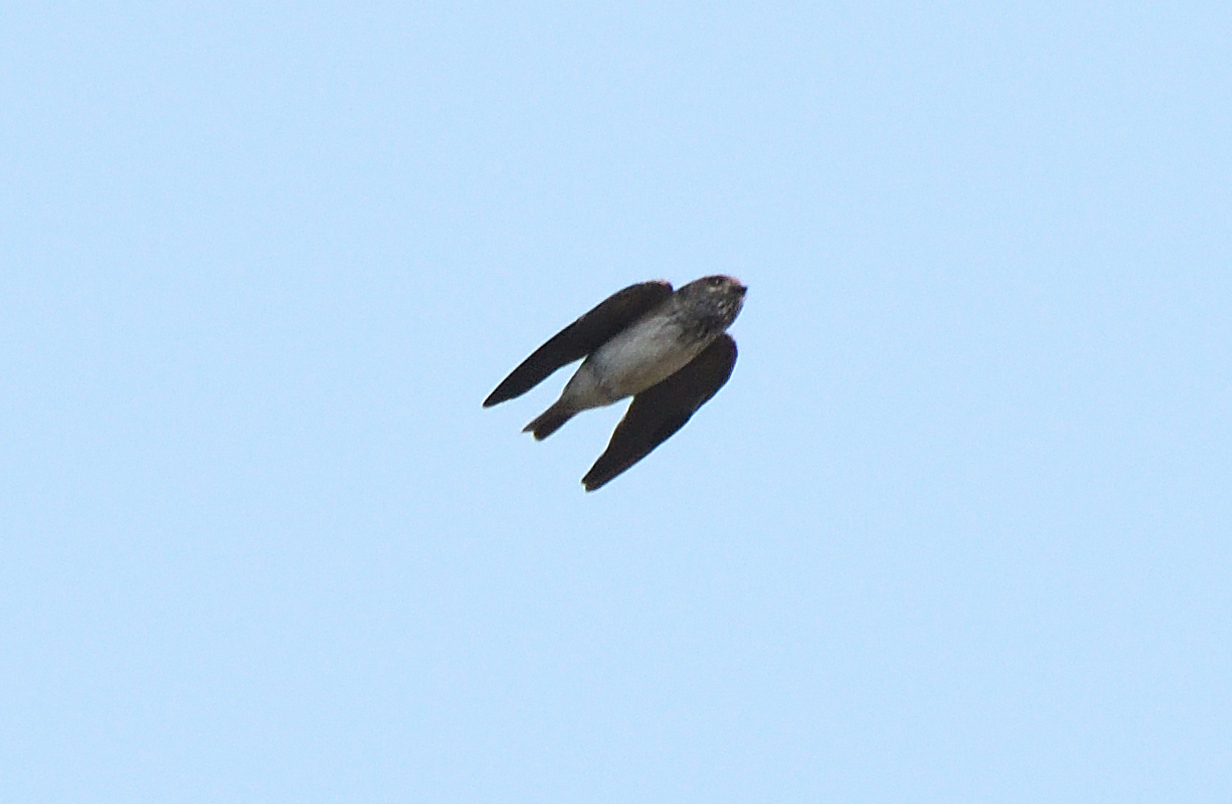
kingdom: Animalia
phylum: Chordata
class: Aves
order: Passeriformes
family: Hirundinidae
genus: Petrochelidon
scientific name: Petrochelidon fluvicola
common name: Streak-throated swallow
